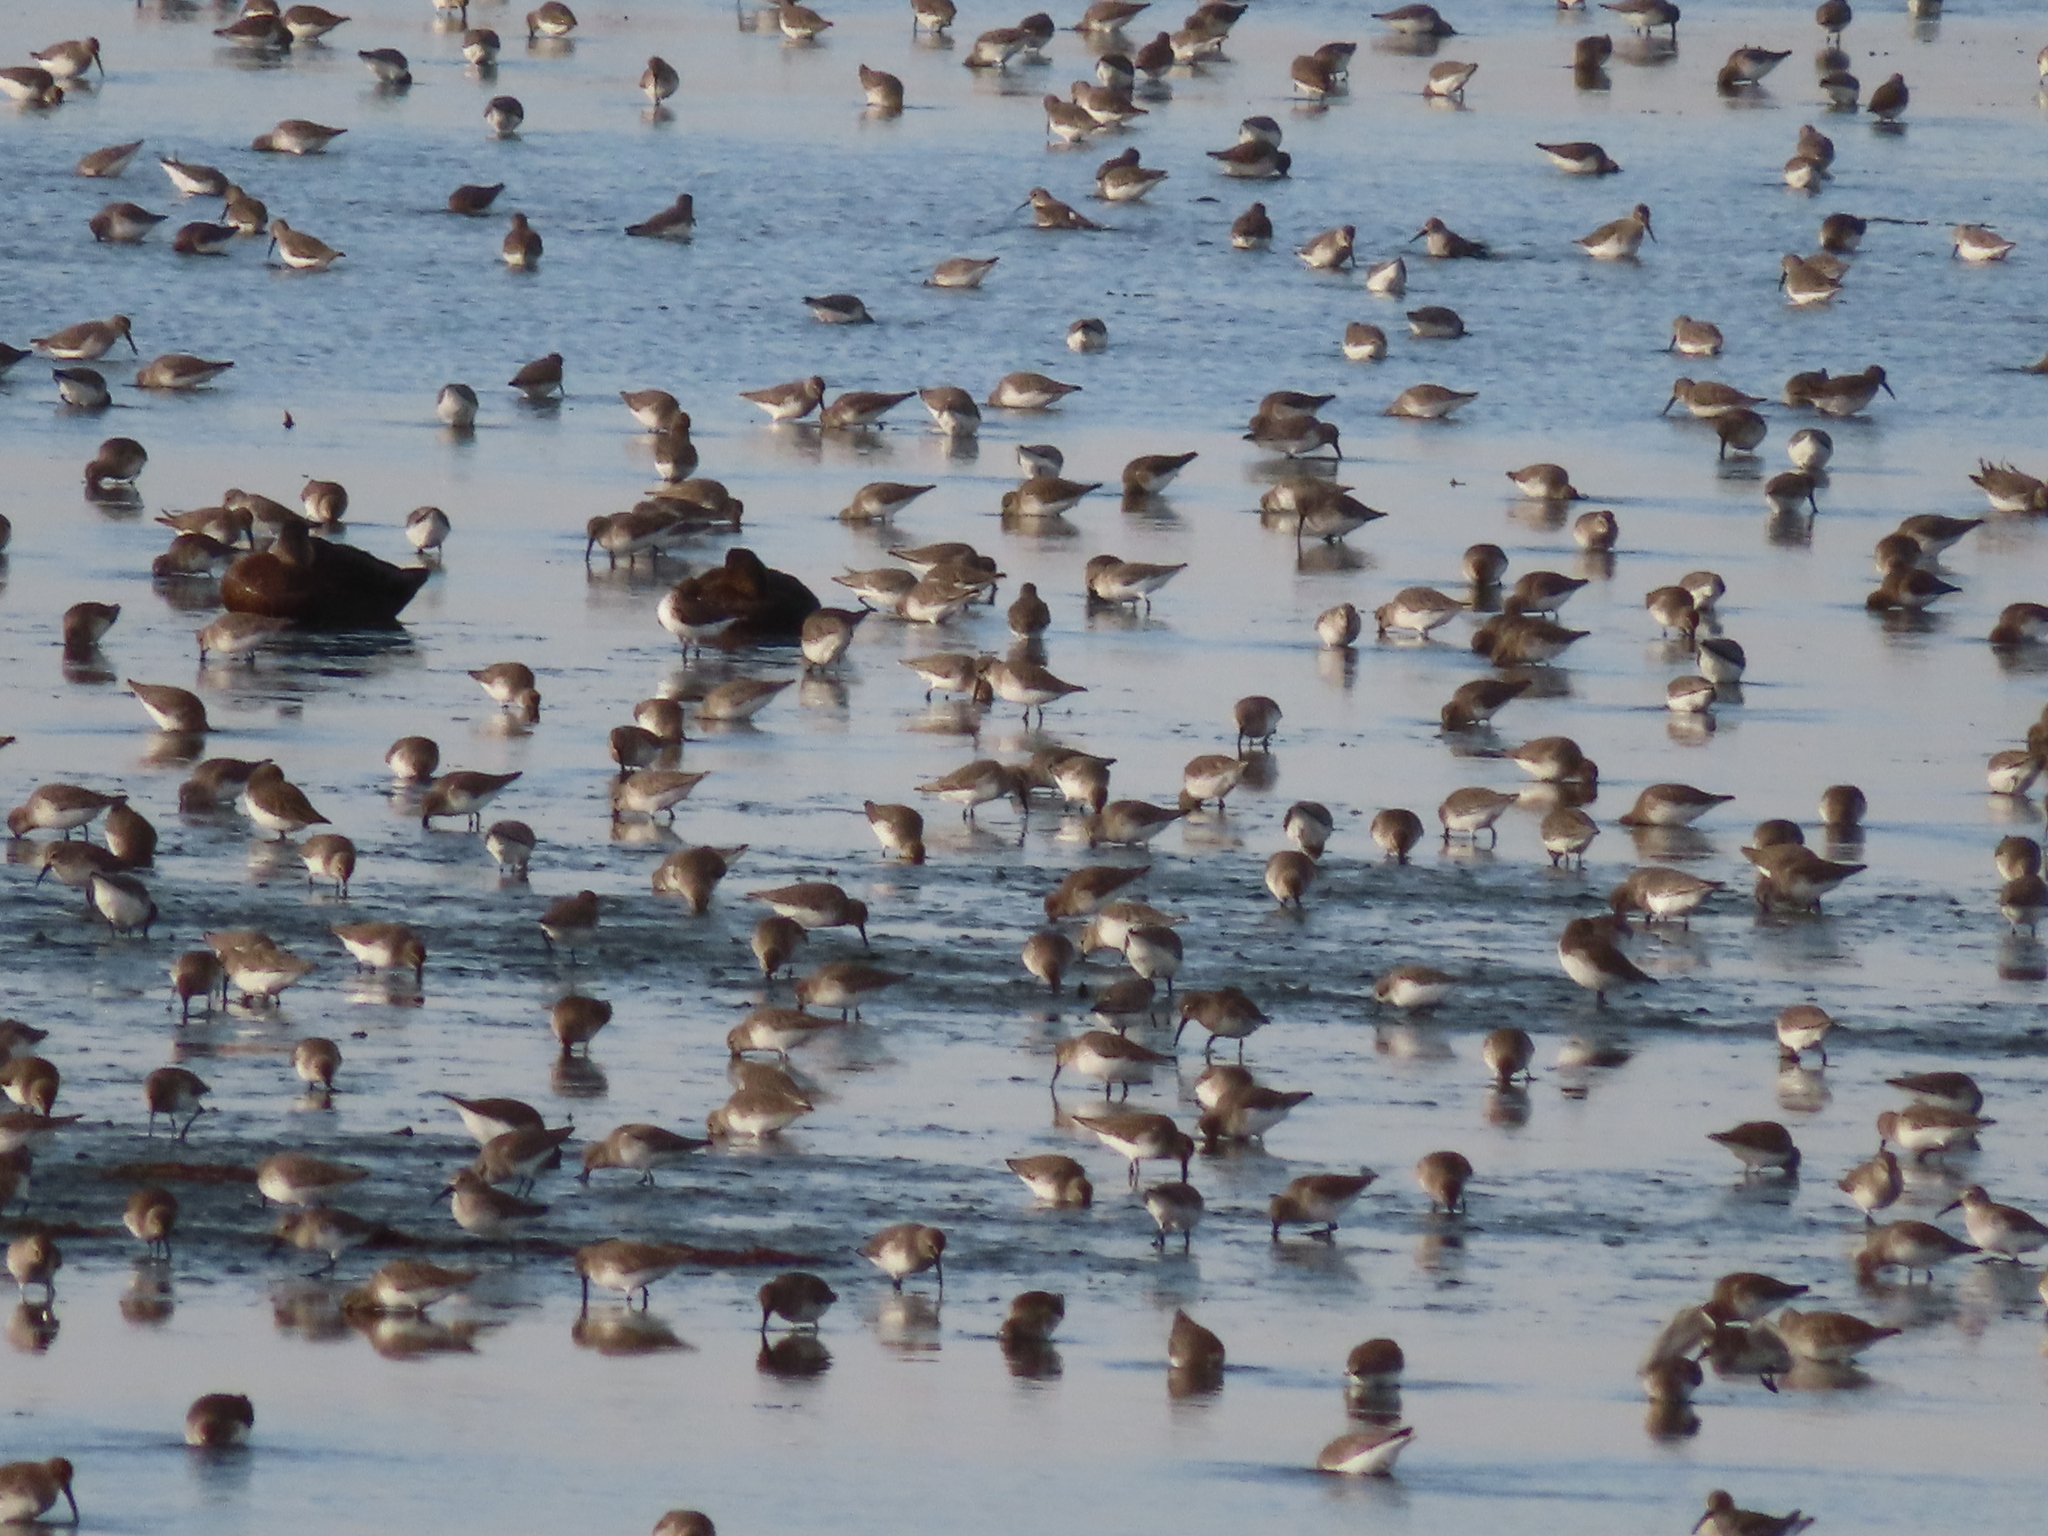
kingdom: Animalia
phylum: Chordata
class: Aves
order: Charadriiformes
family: Scolopacidae
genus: Calidris
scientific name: Calidris alpina
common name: Dunlin
